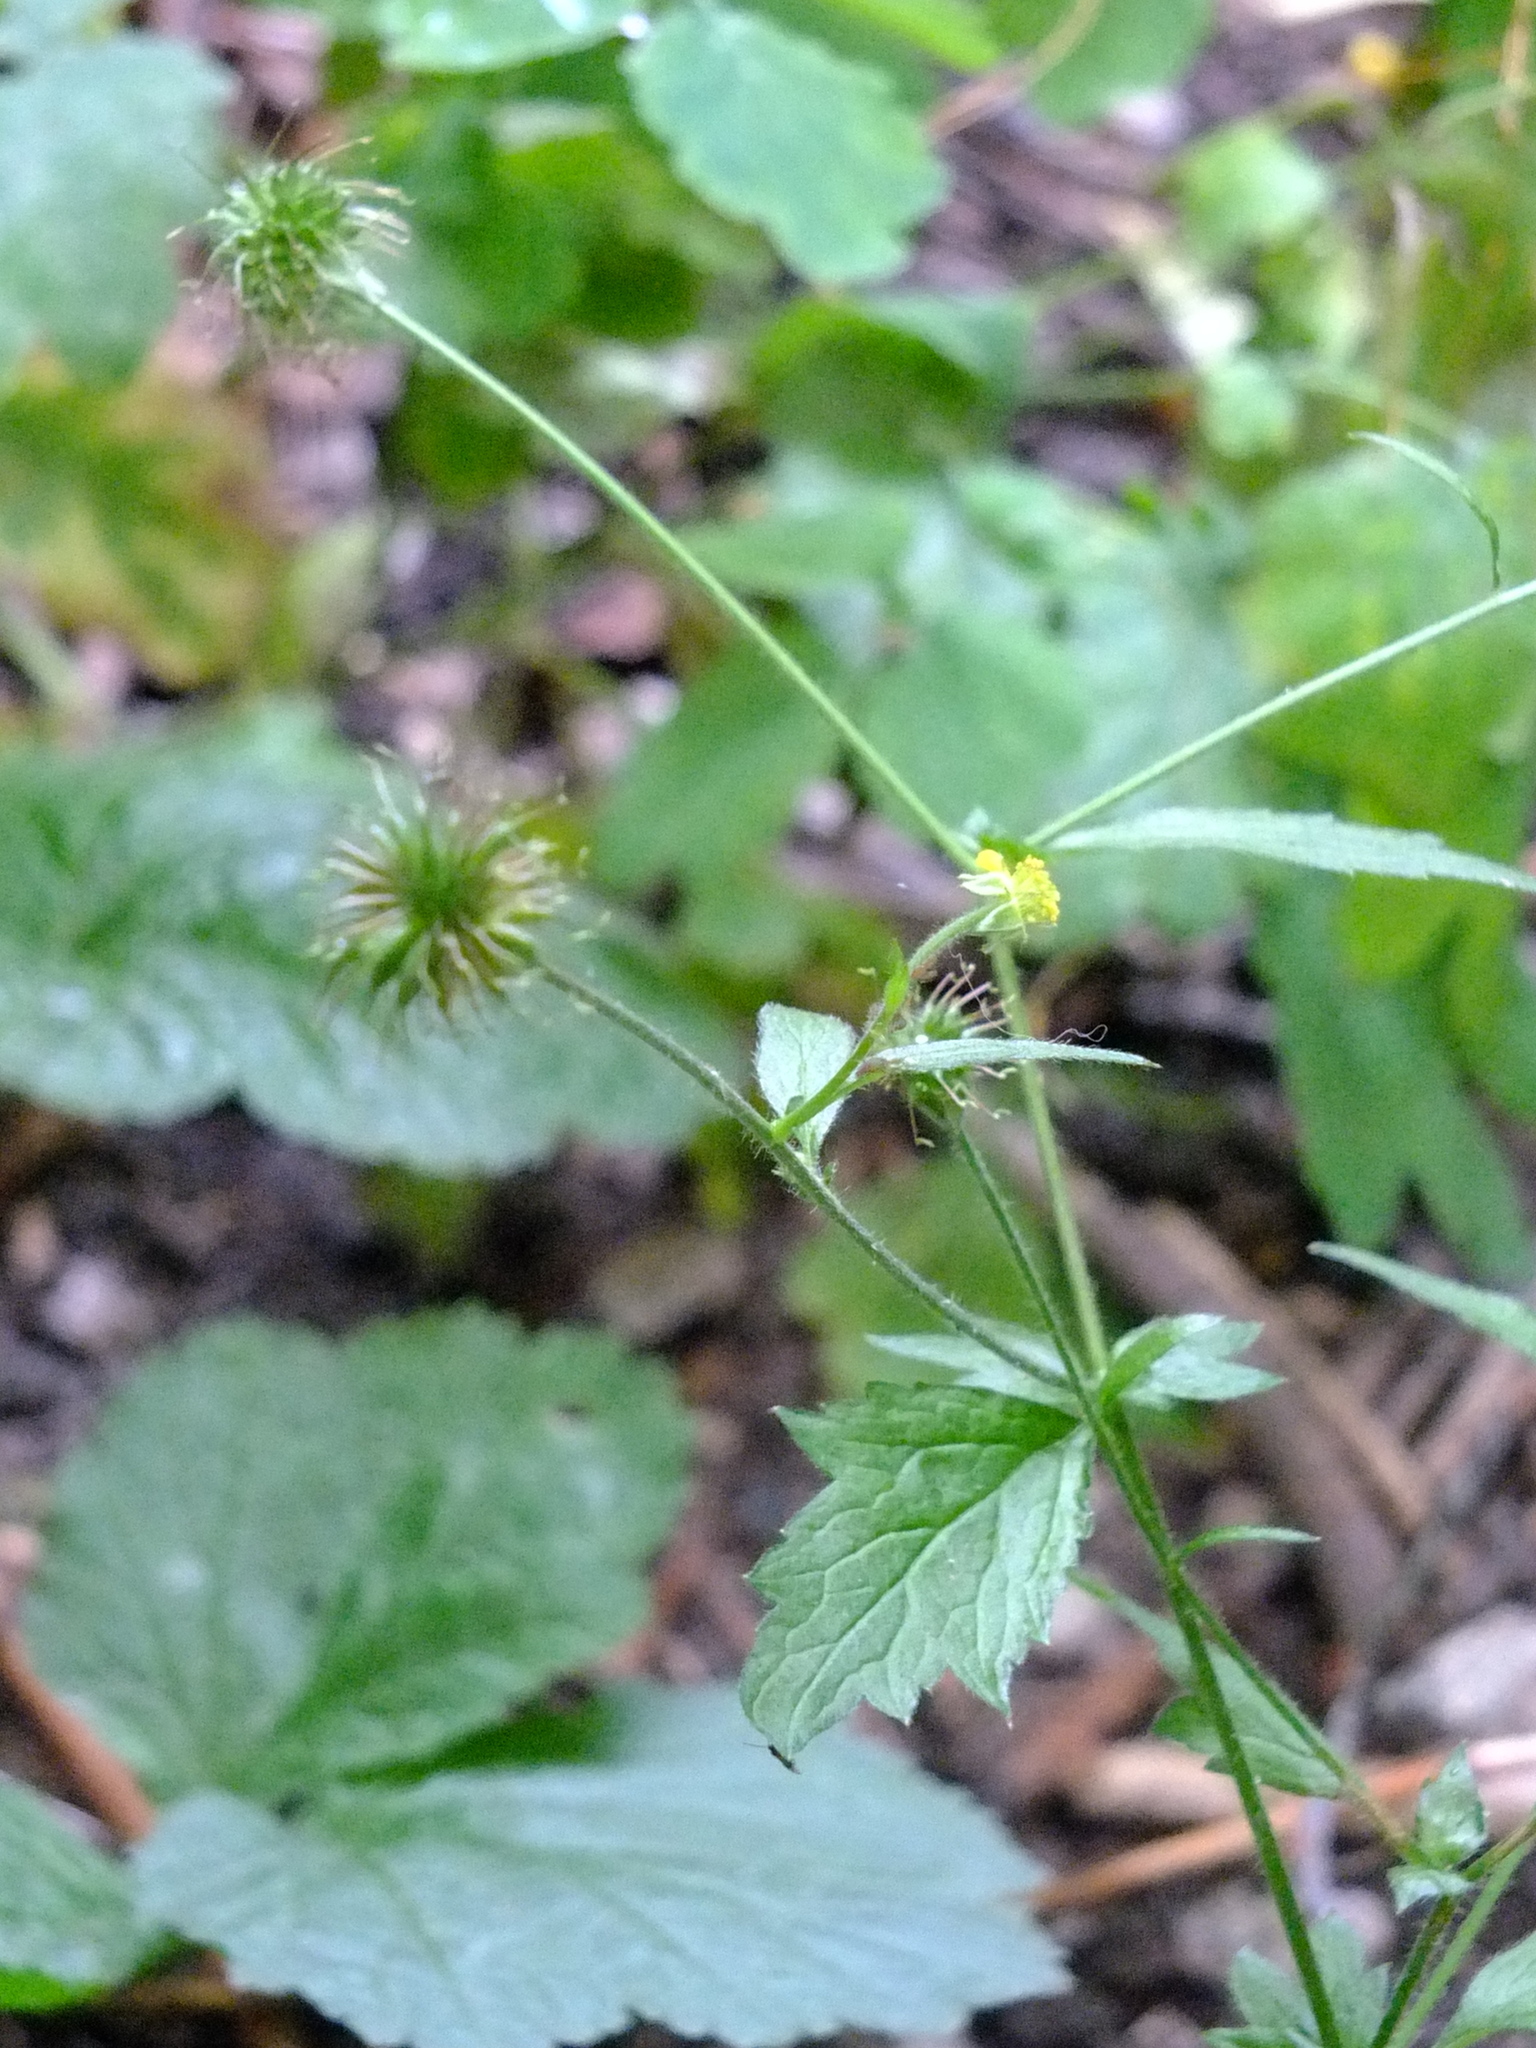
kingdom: Plantae
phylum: Tracheophyta
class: Magnoliopsida
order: Rosales
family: Rosaceae
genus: Geum
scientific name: Geum urbanum
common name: Wood avens
